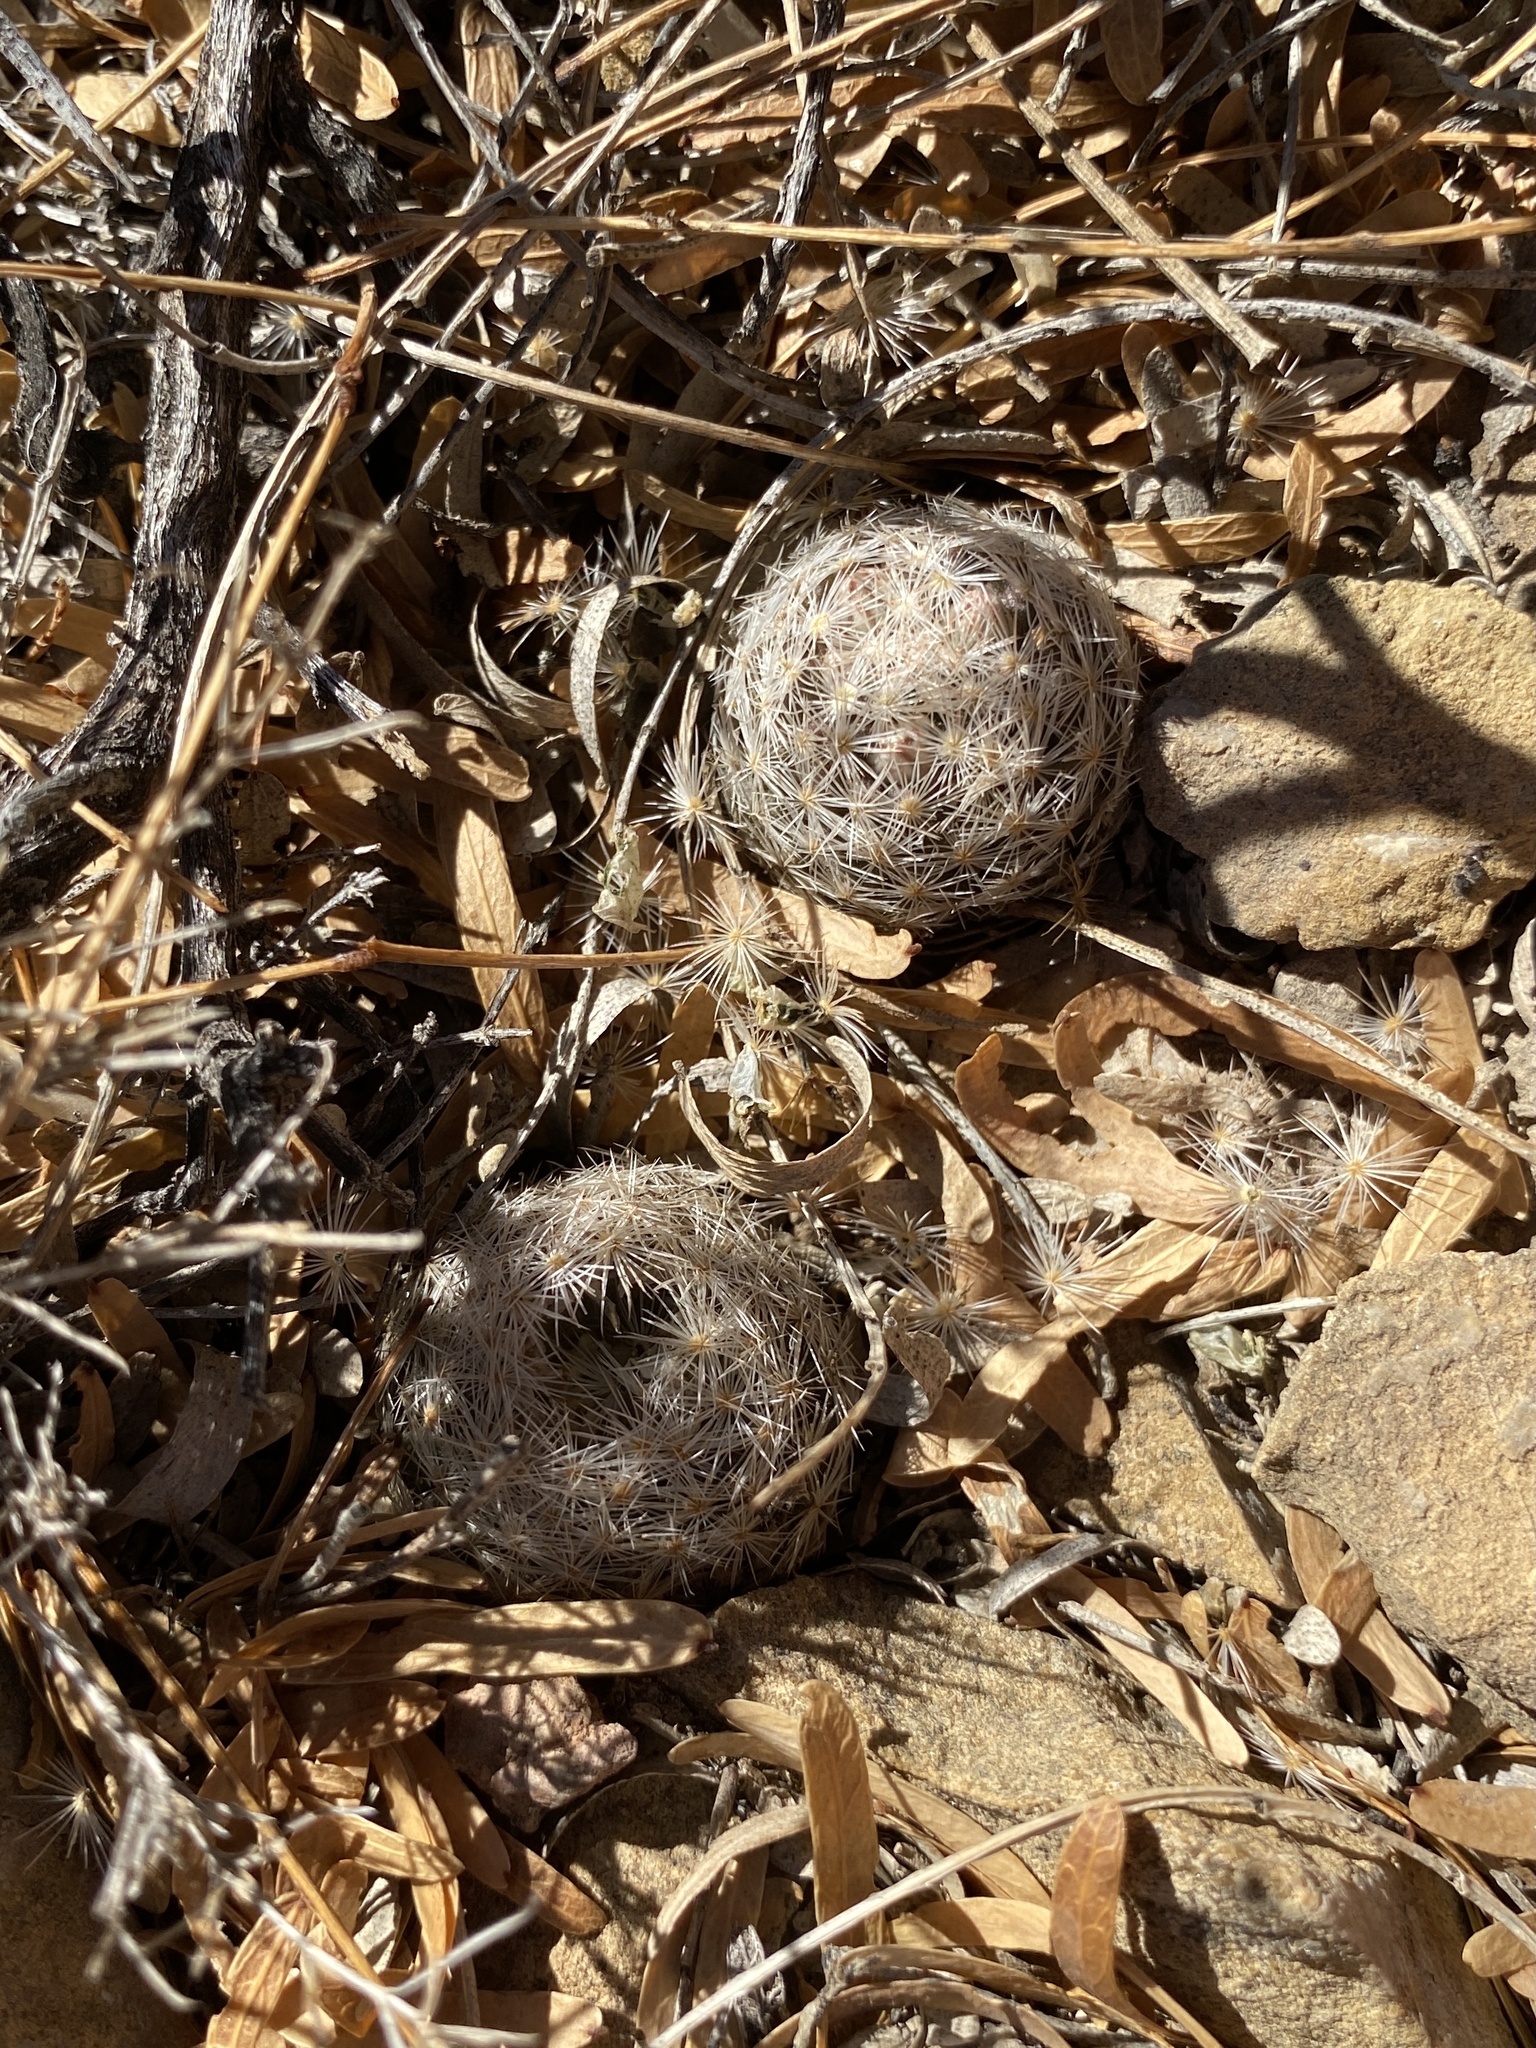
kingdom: Plantae
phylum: Tracheophyta
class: Magnoliopsida
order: Caryophyllales
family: Cactaceae
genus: Mammillaria
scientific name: Mammillaria lasiacantha
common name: Lace-spine nipple cactus
